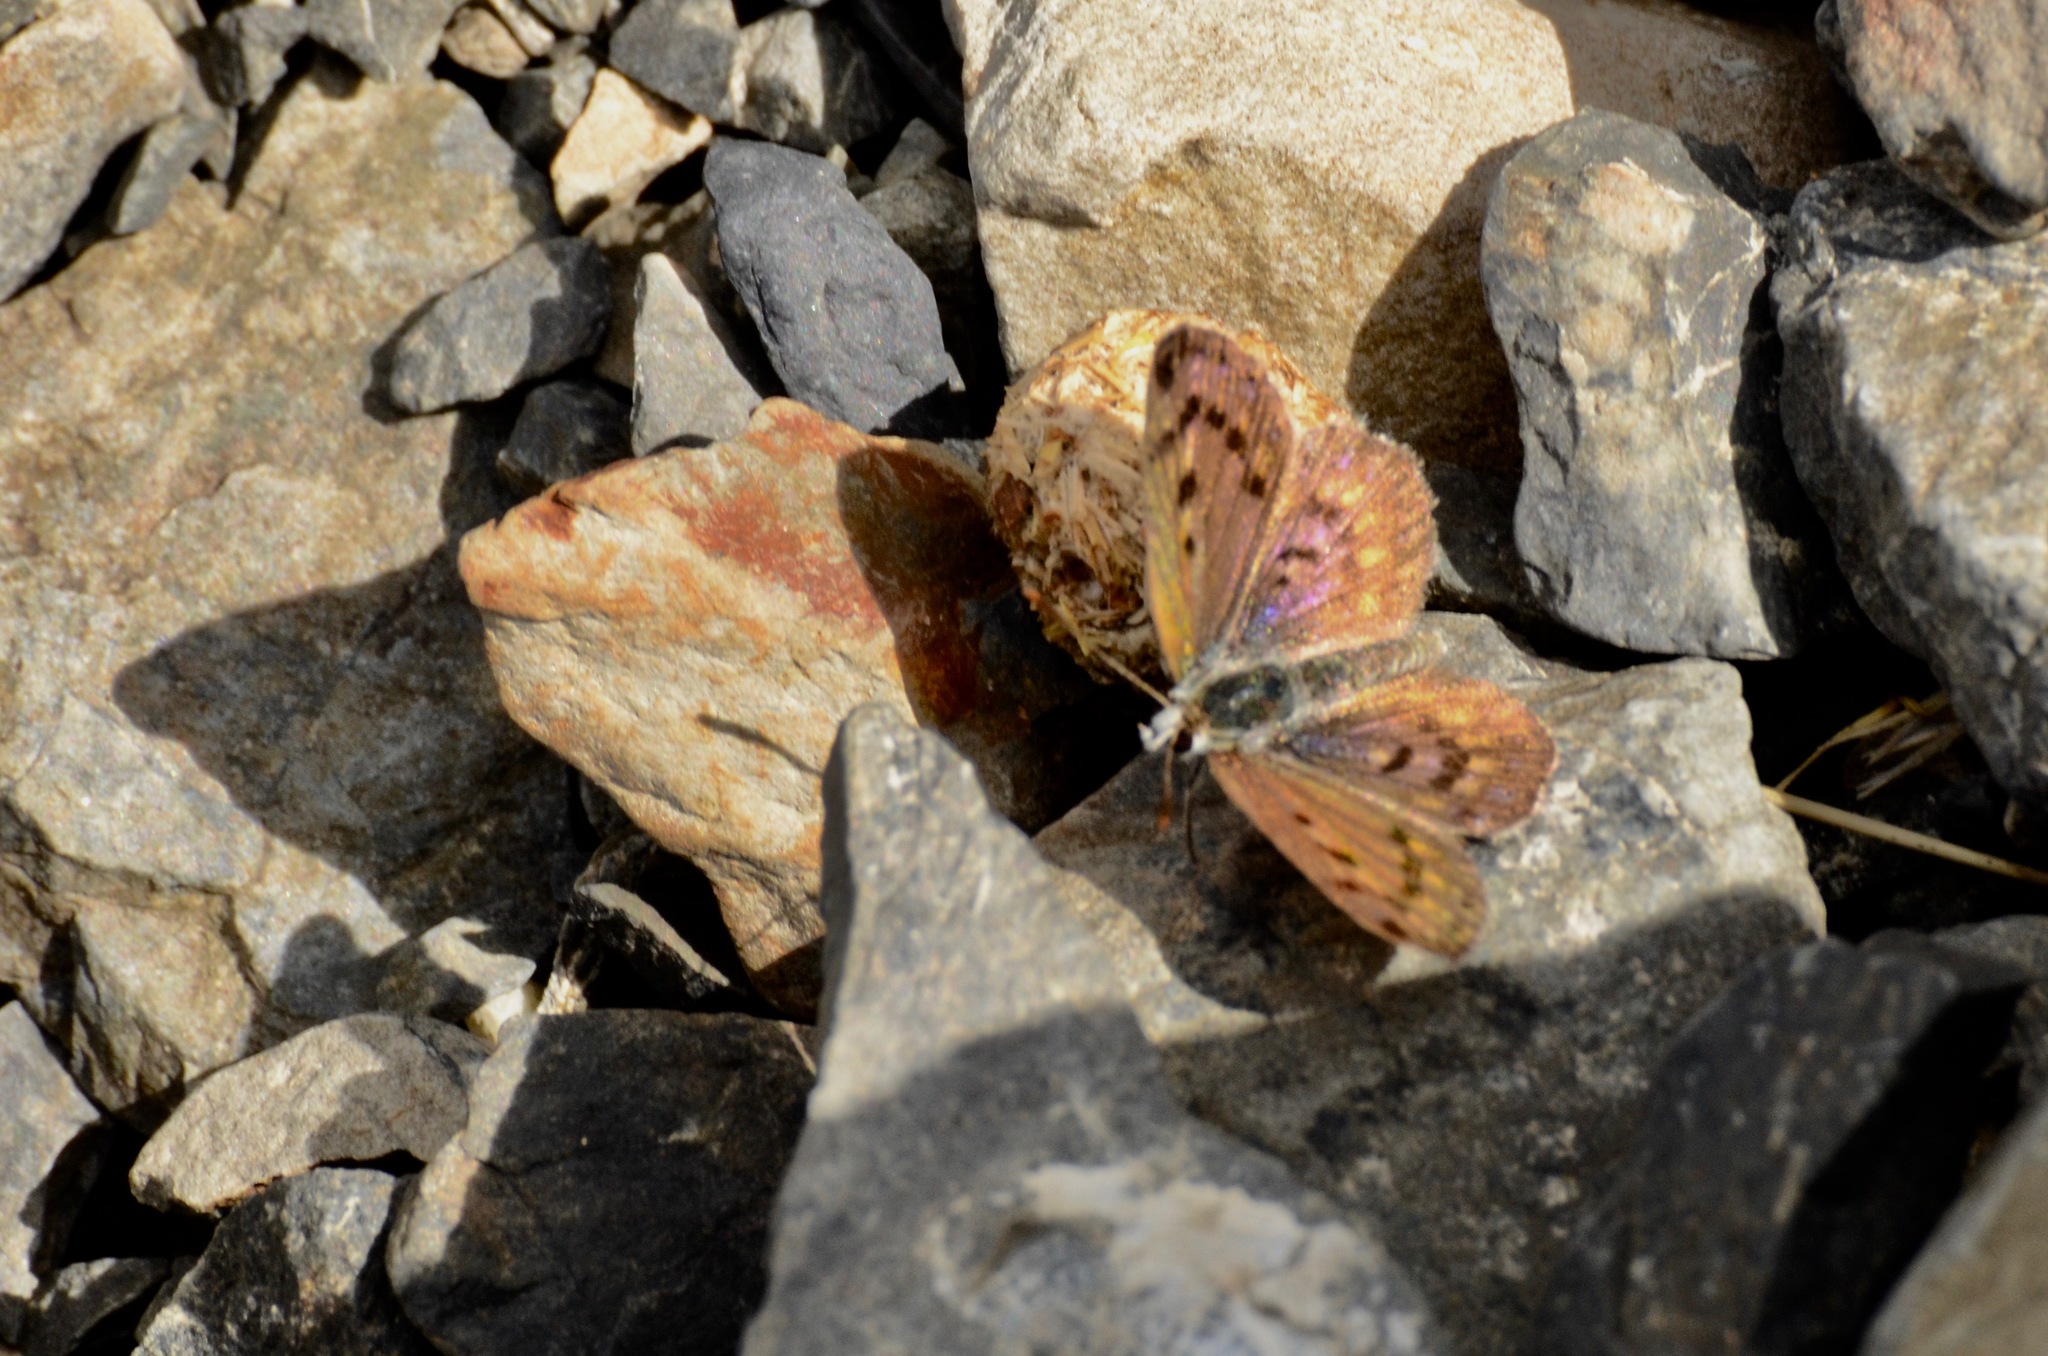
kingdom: Animalia
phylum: Arthropoda
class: Insecta
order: Lepidoptera
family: Lycaenidae
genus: Lycaena
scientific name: Lycaena boldenarum
